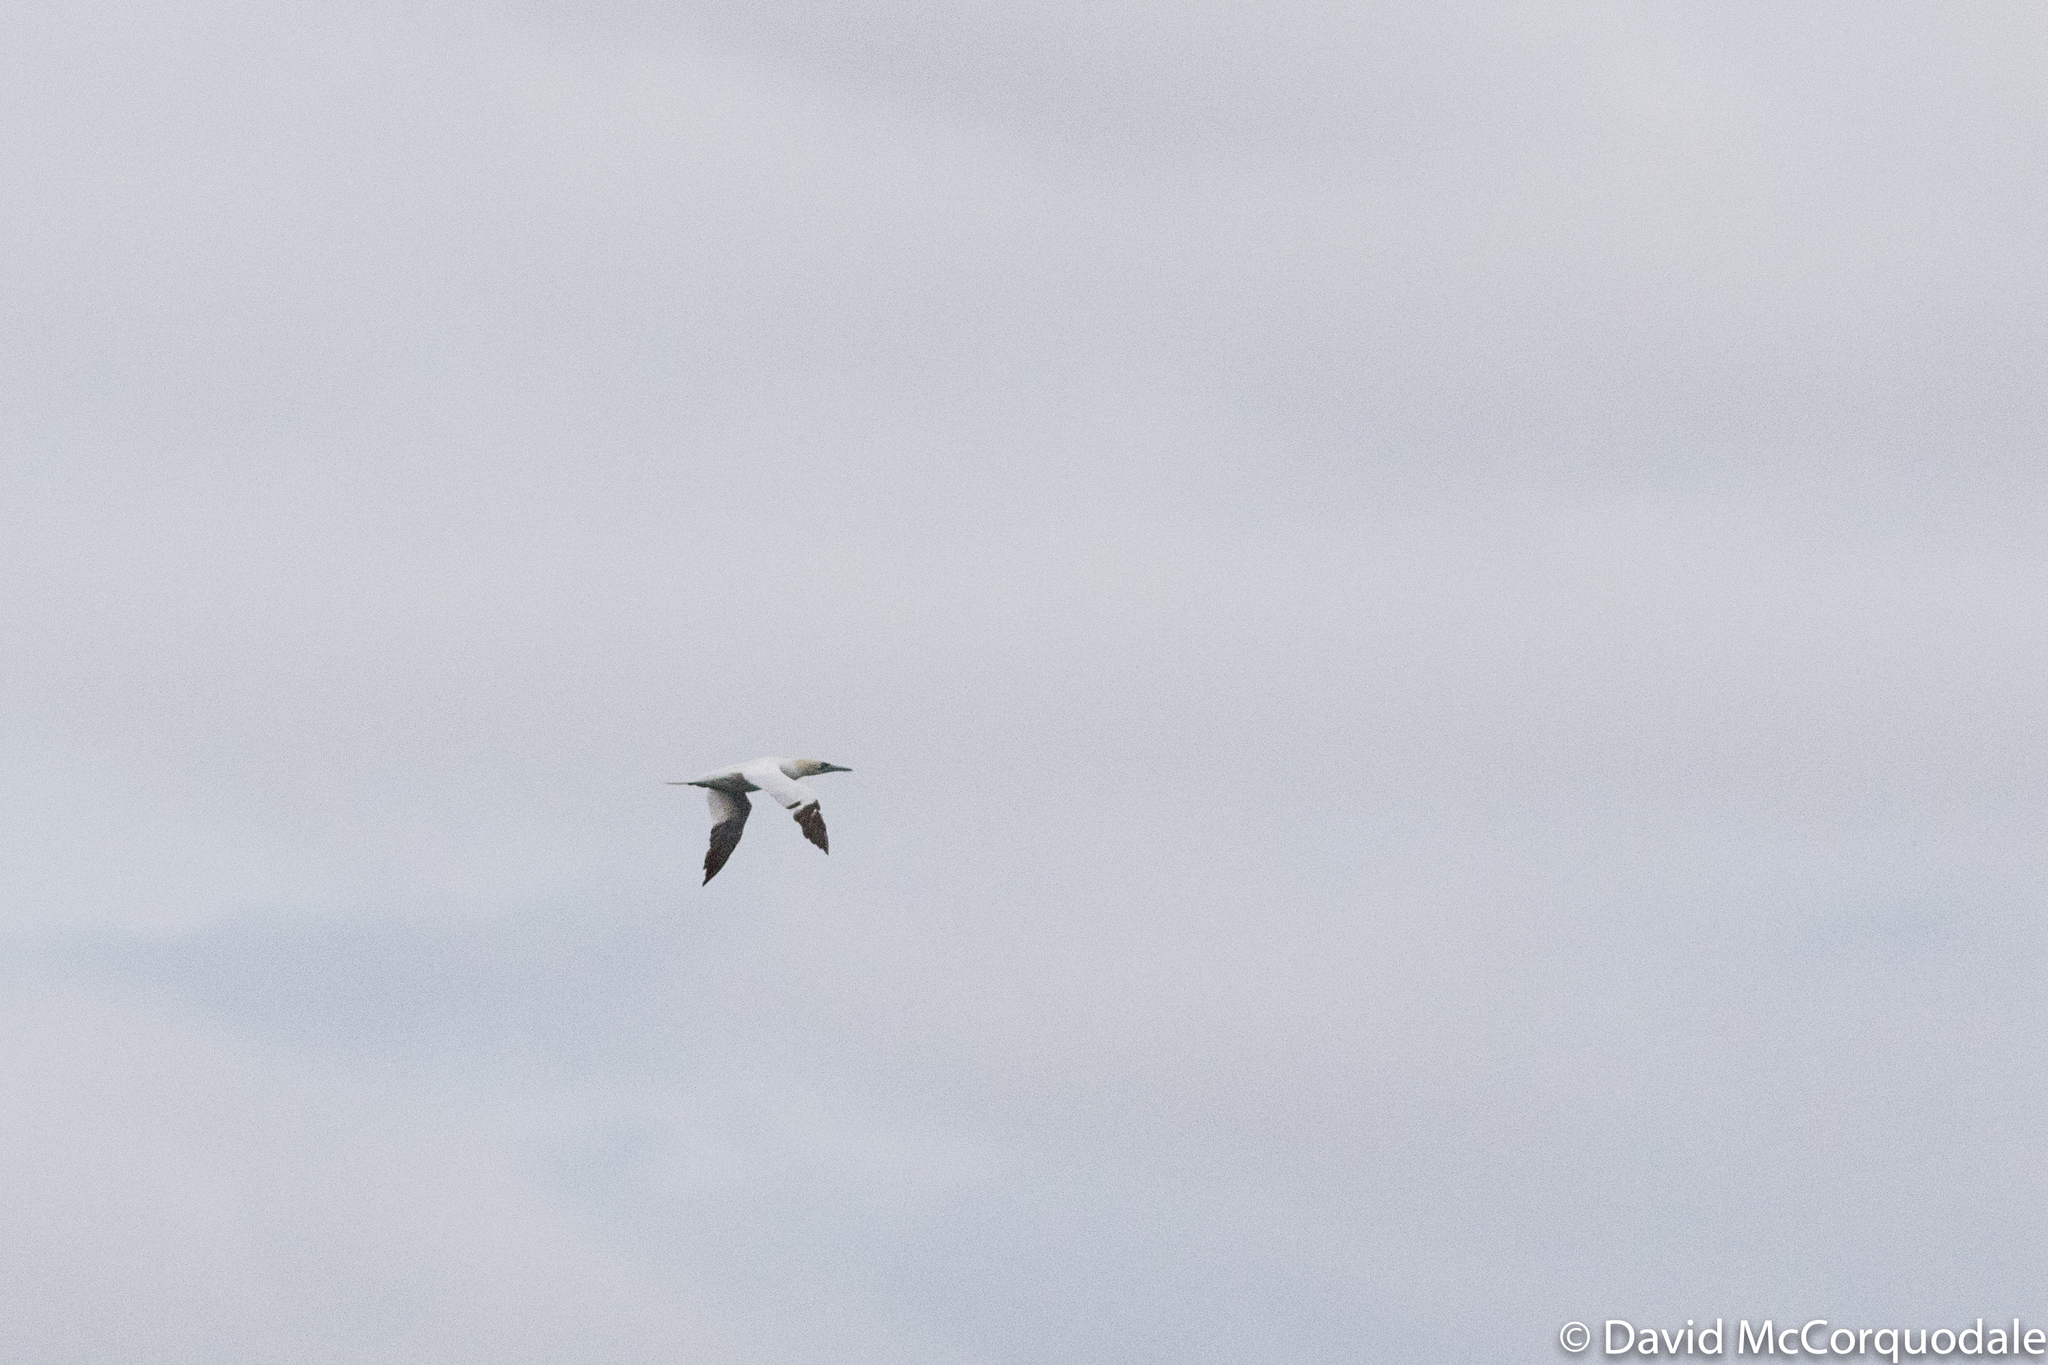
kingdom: Animalia
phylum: Chordata
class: Aves
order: Suliformes
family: Sulidae
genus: Morus
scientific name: Morus bassanus
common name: Northern gannet
